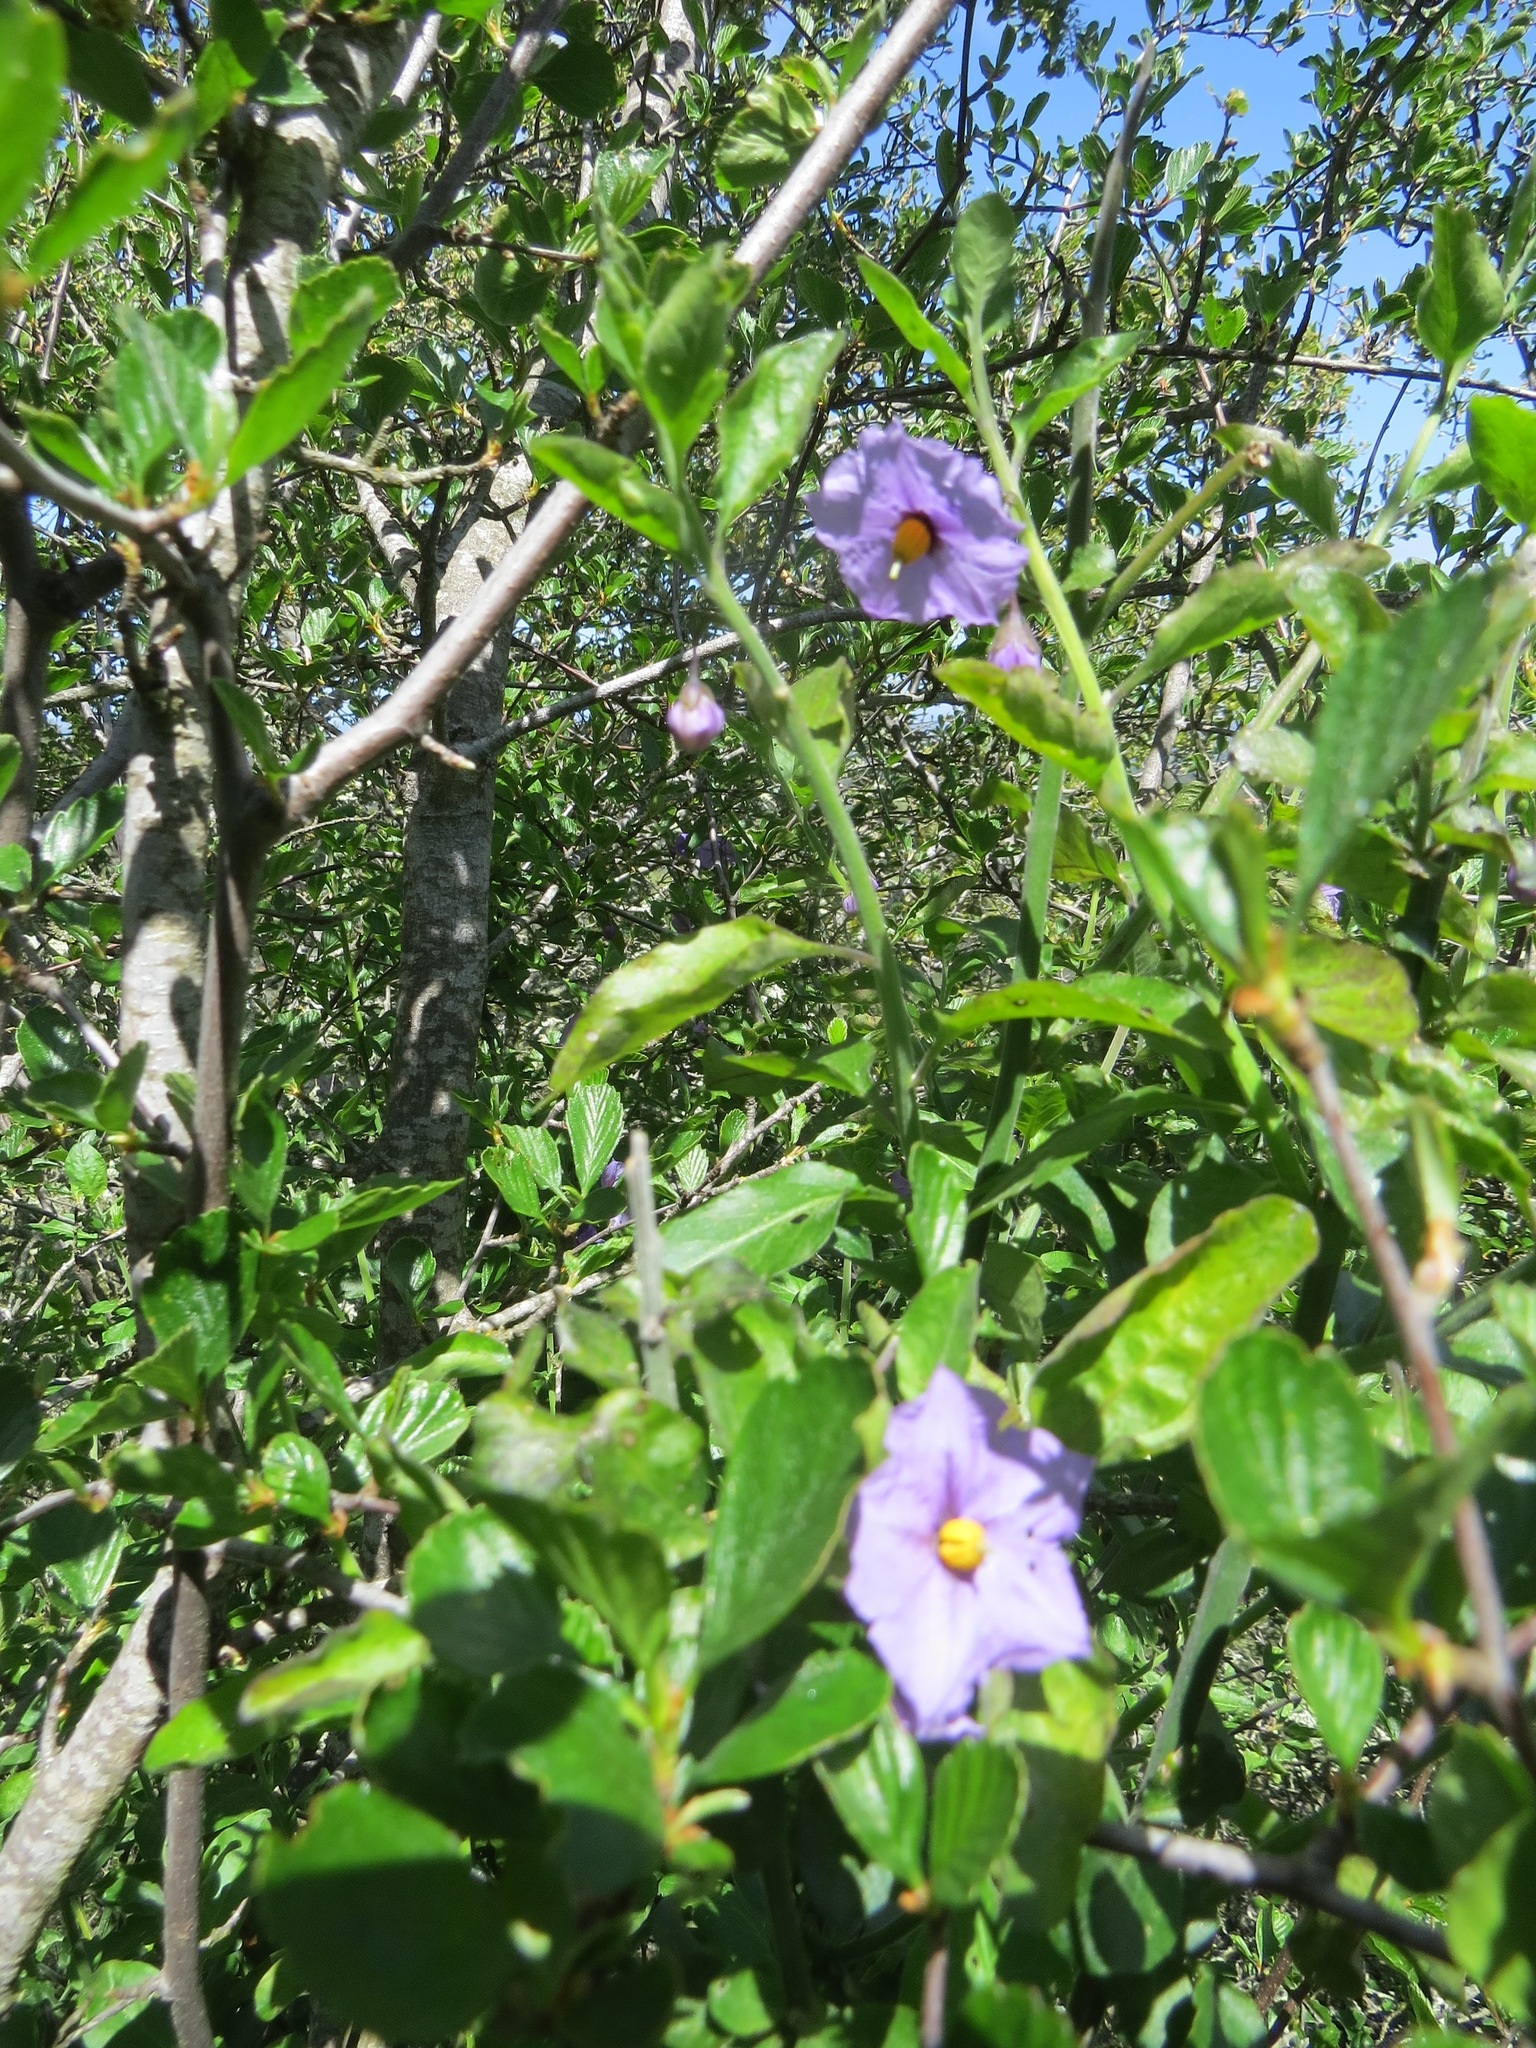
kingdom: Plantae
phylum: Tracheophyta
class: Magnoliopsida
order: Solanales
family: Solanaceae
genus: Solanum
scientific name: Solanum umbelliferum
